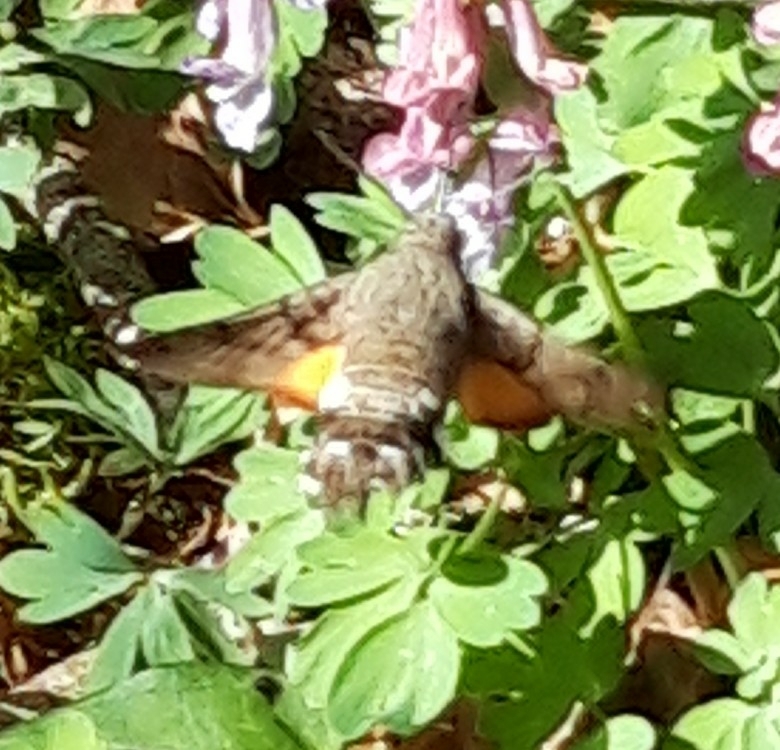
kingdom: Animalia
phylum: Arthropoda
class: Insecta
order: Lepidoptera
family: Sphingidae
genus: Macroglossum
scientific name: Macroglossum stellatarum
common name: Humming-bird hawk-moth
